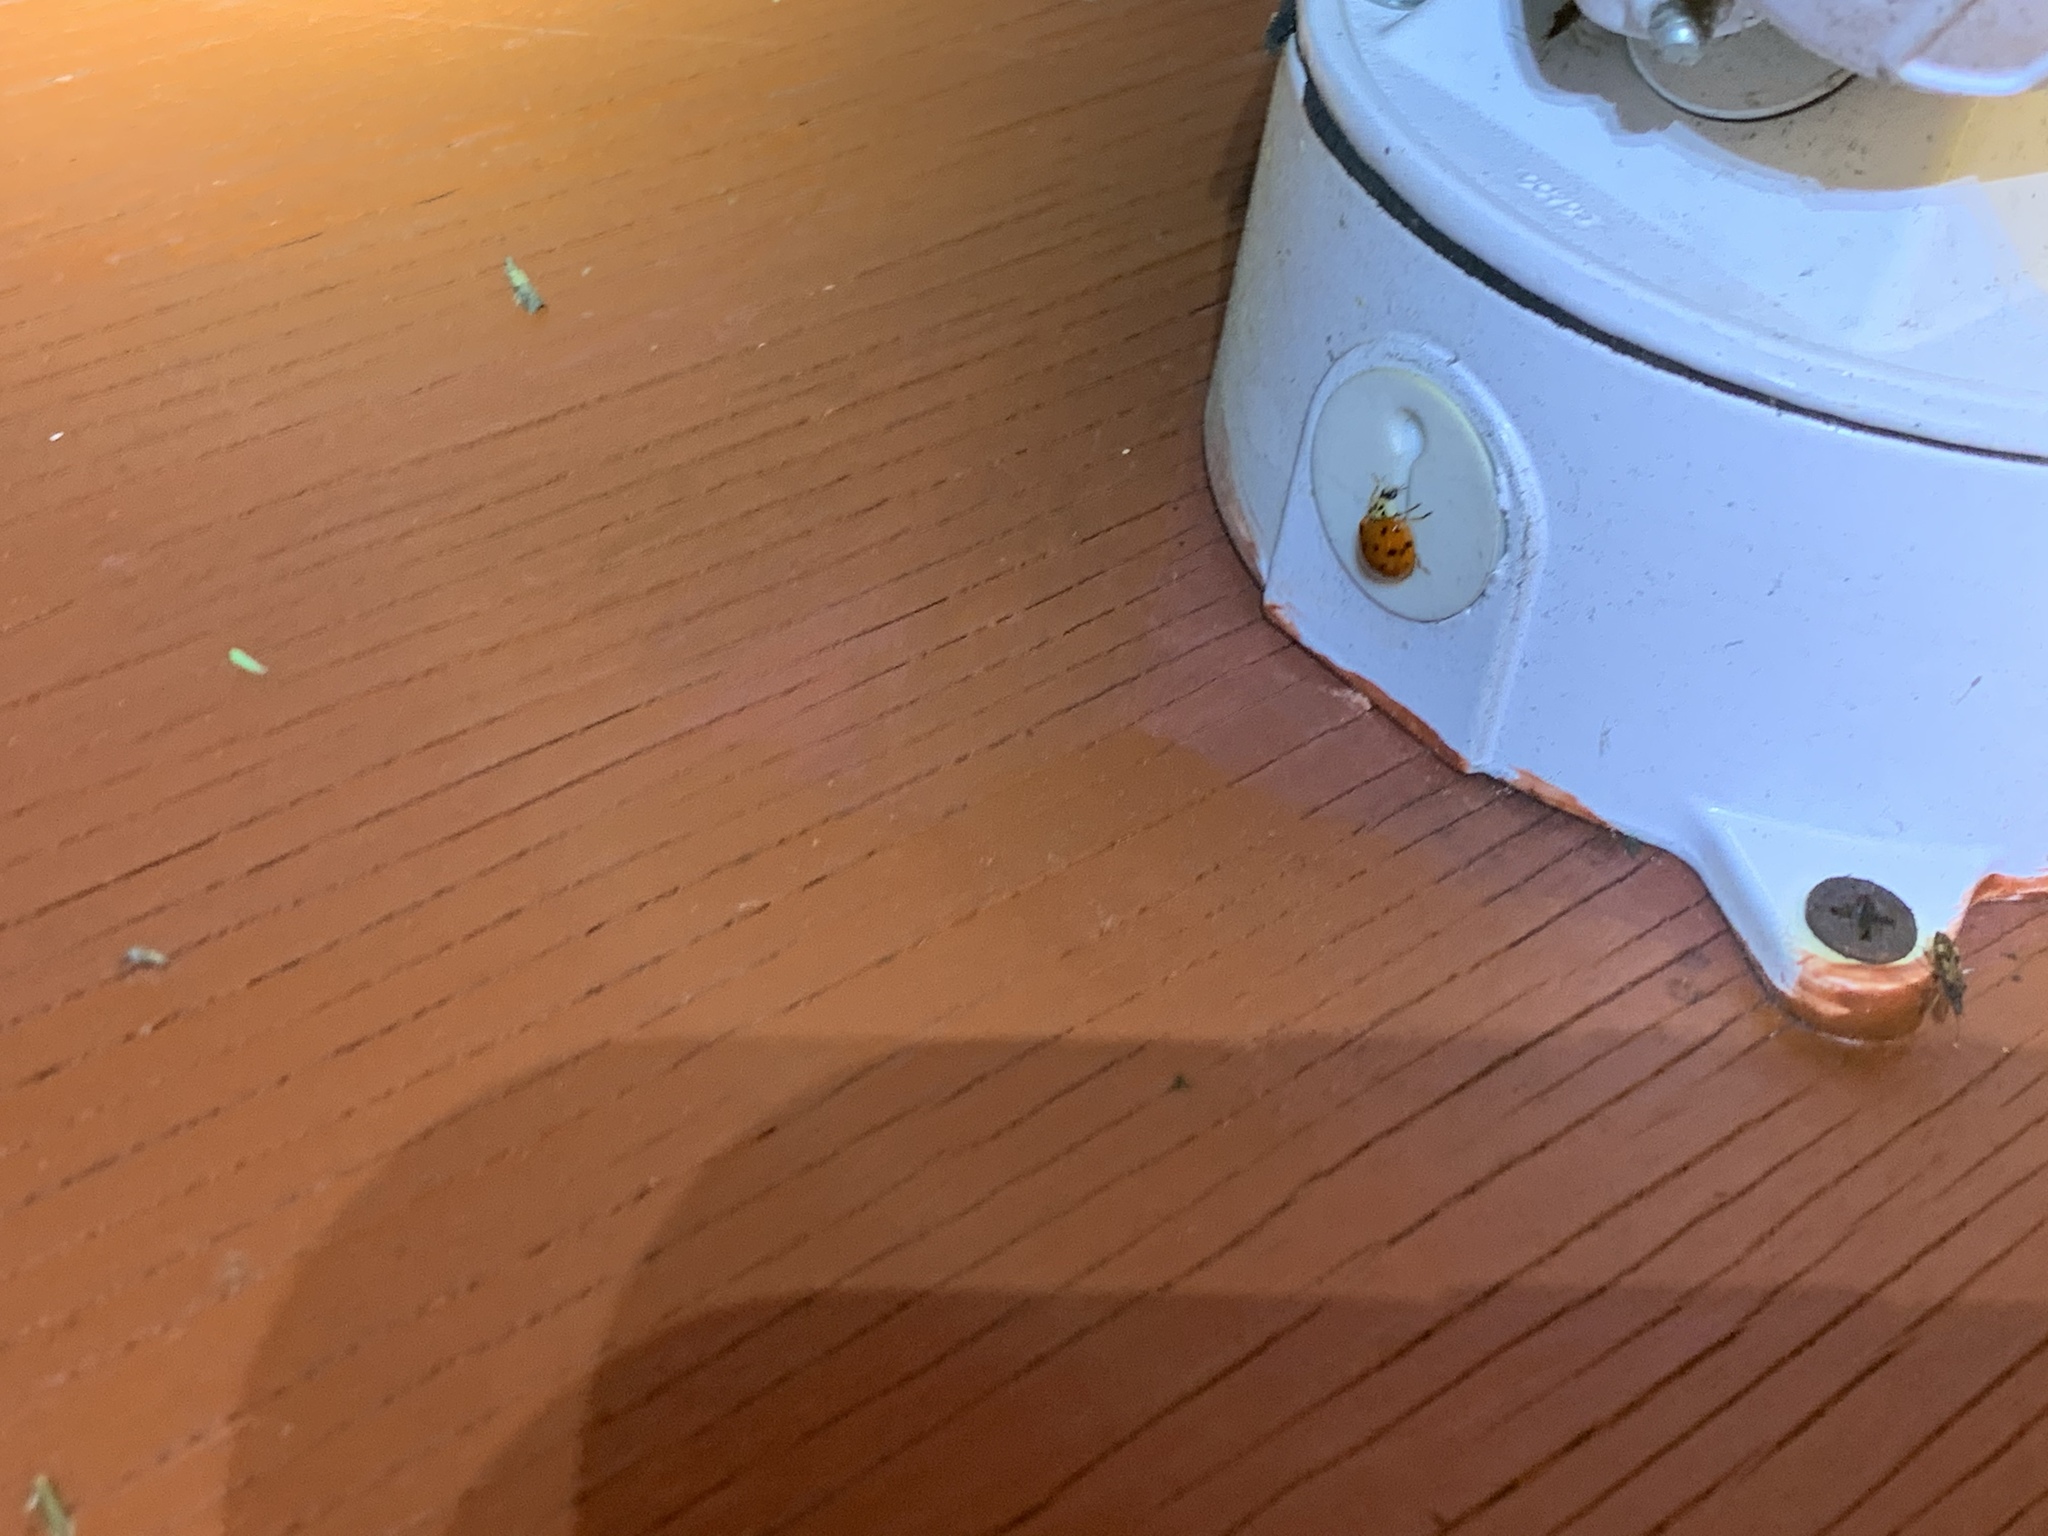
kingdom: Animalia
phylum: Arthropoda
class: Insecta
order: Coleoptera
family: Coccinellidae
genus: Harmonia
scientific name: Harmonia axyridis
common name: Harlequin ladybird
